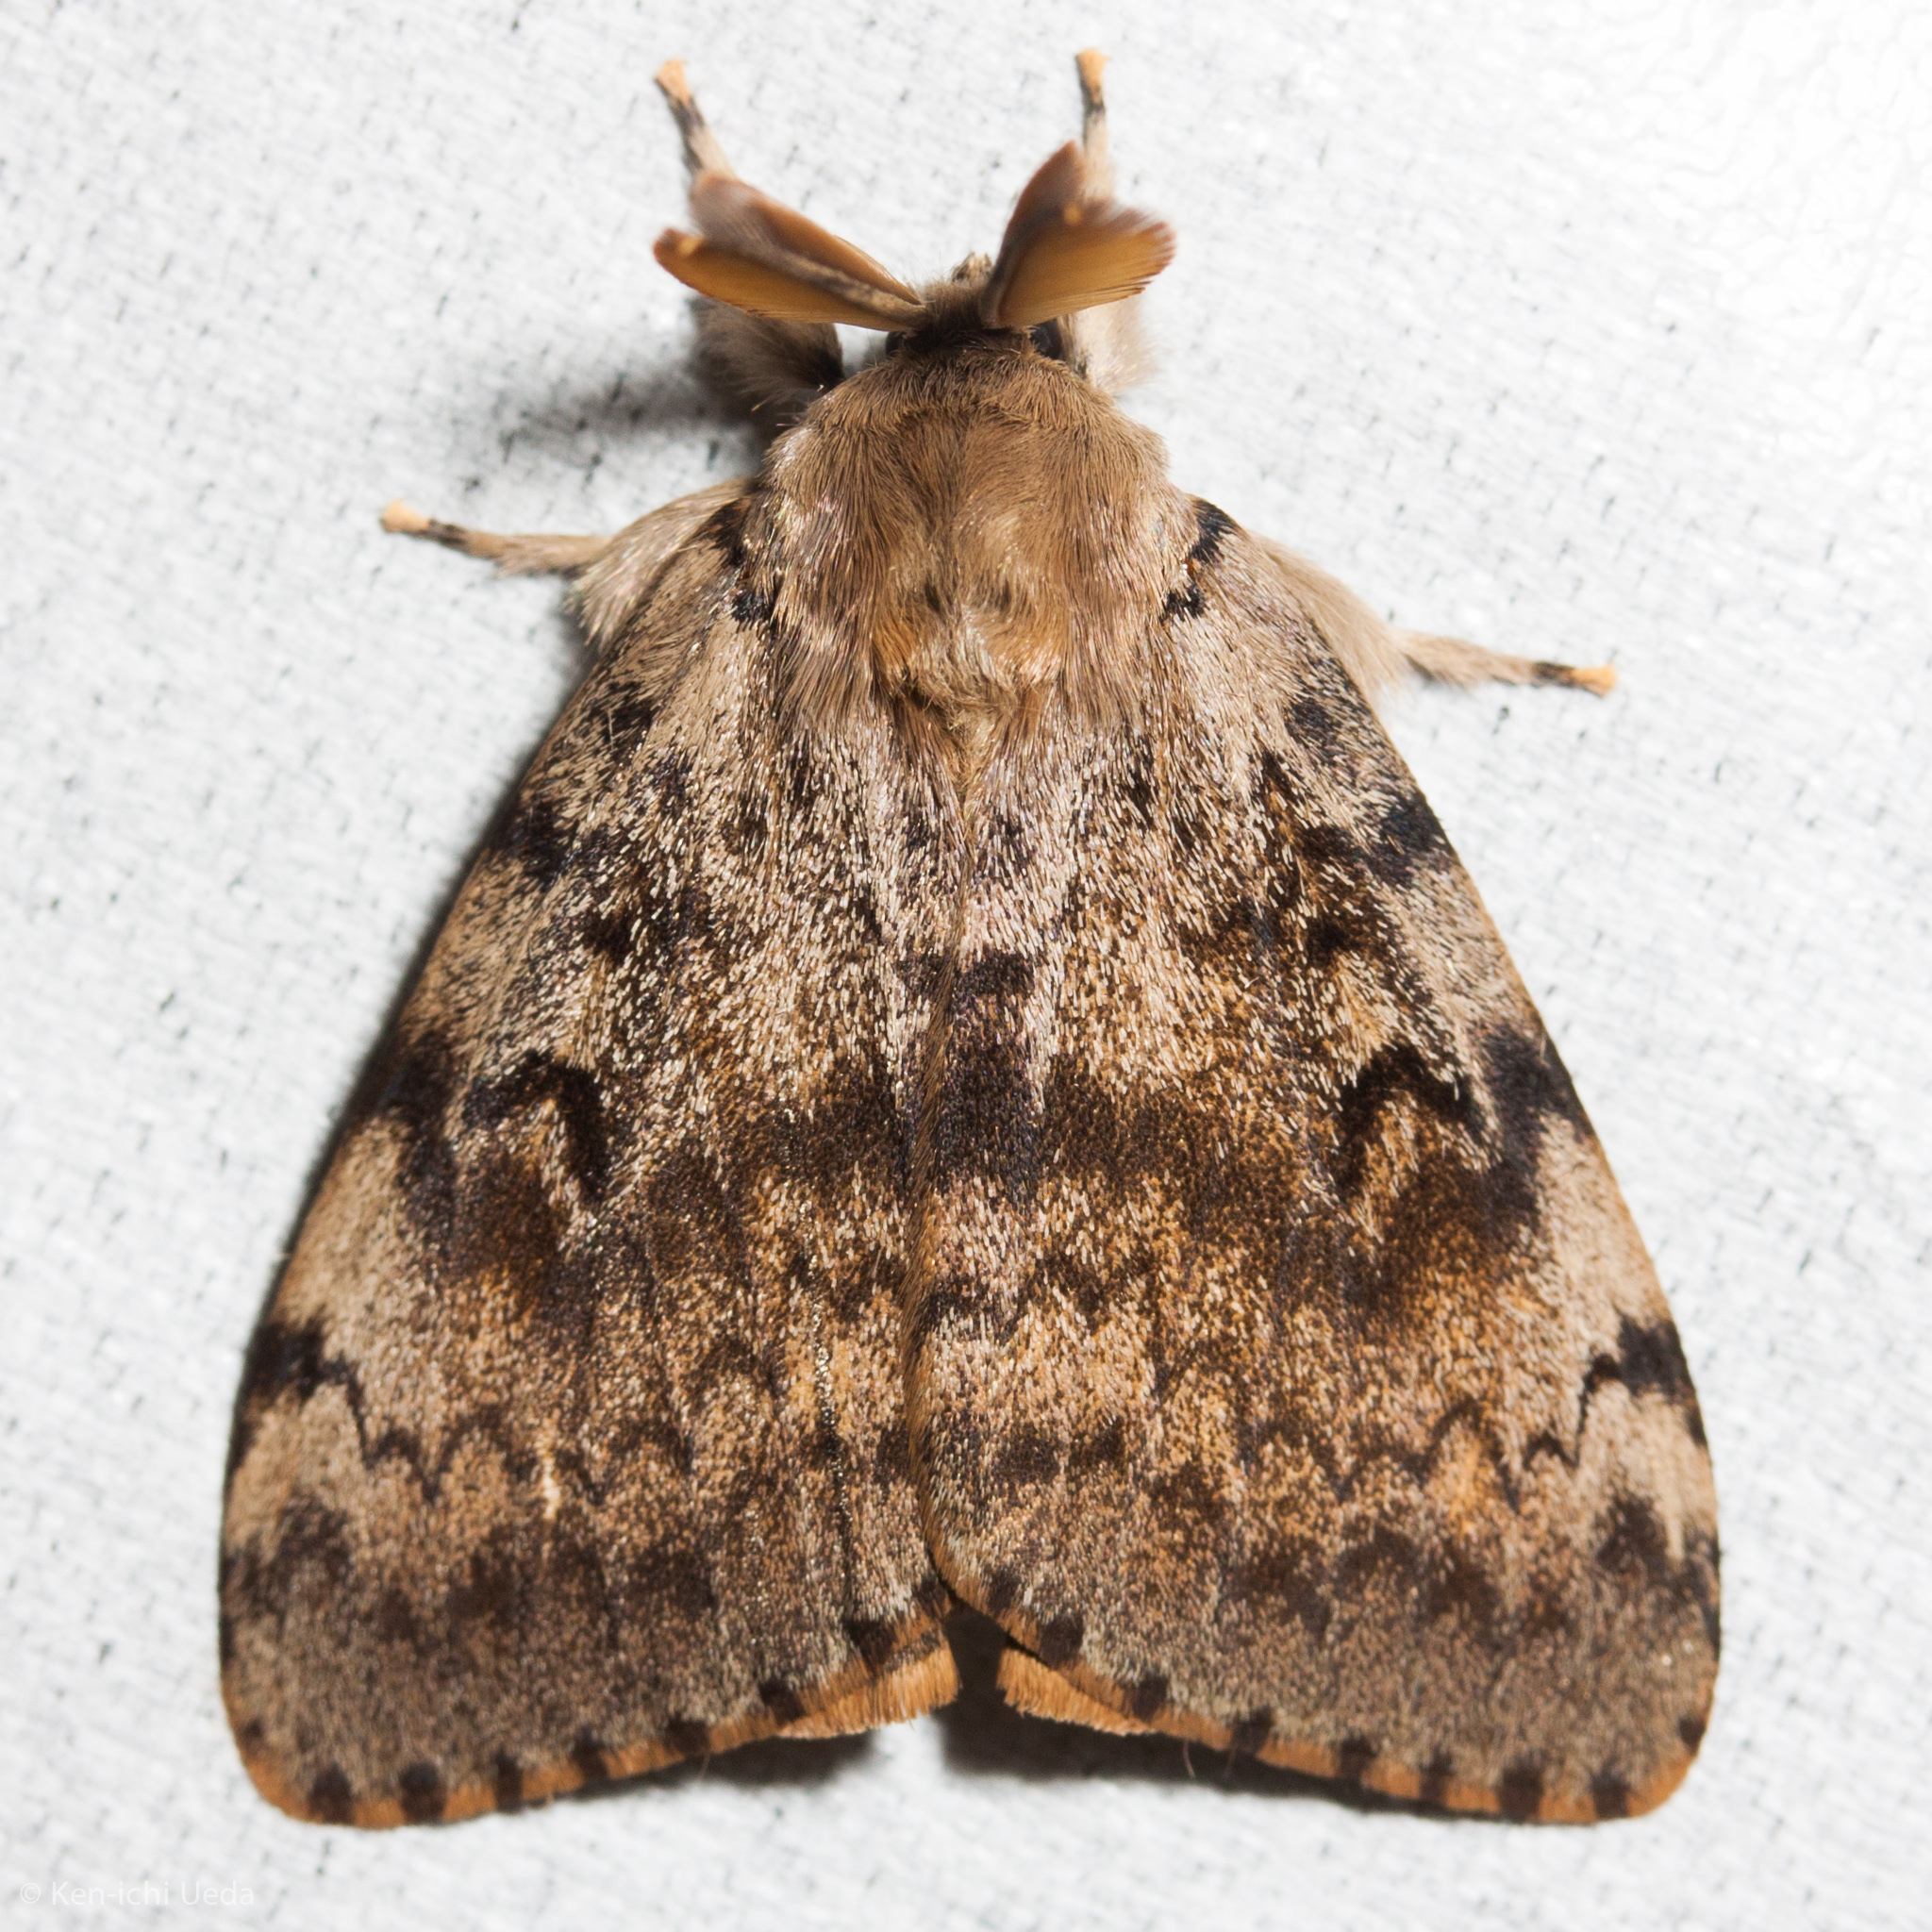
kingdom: Animalia
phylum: Arthropoda
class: Insecta
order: Lepidoptera
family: Erebidae
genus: Lymantria
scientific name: Lymantria dispar
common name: Gypsy moth
